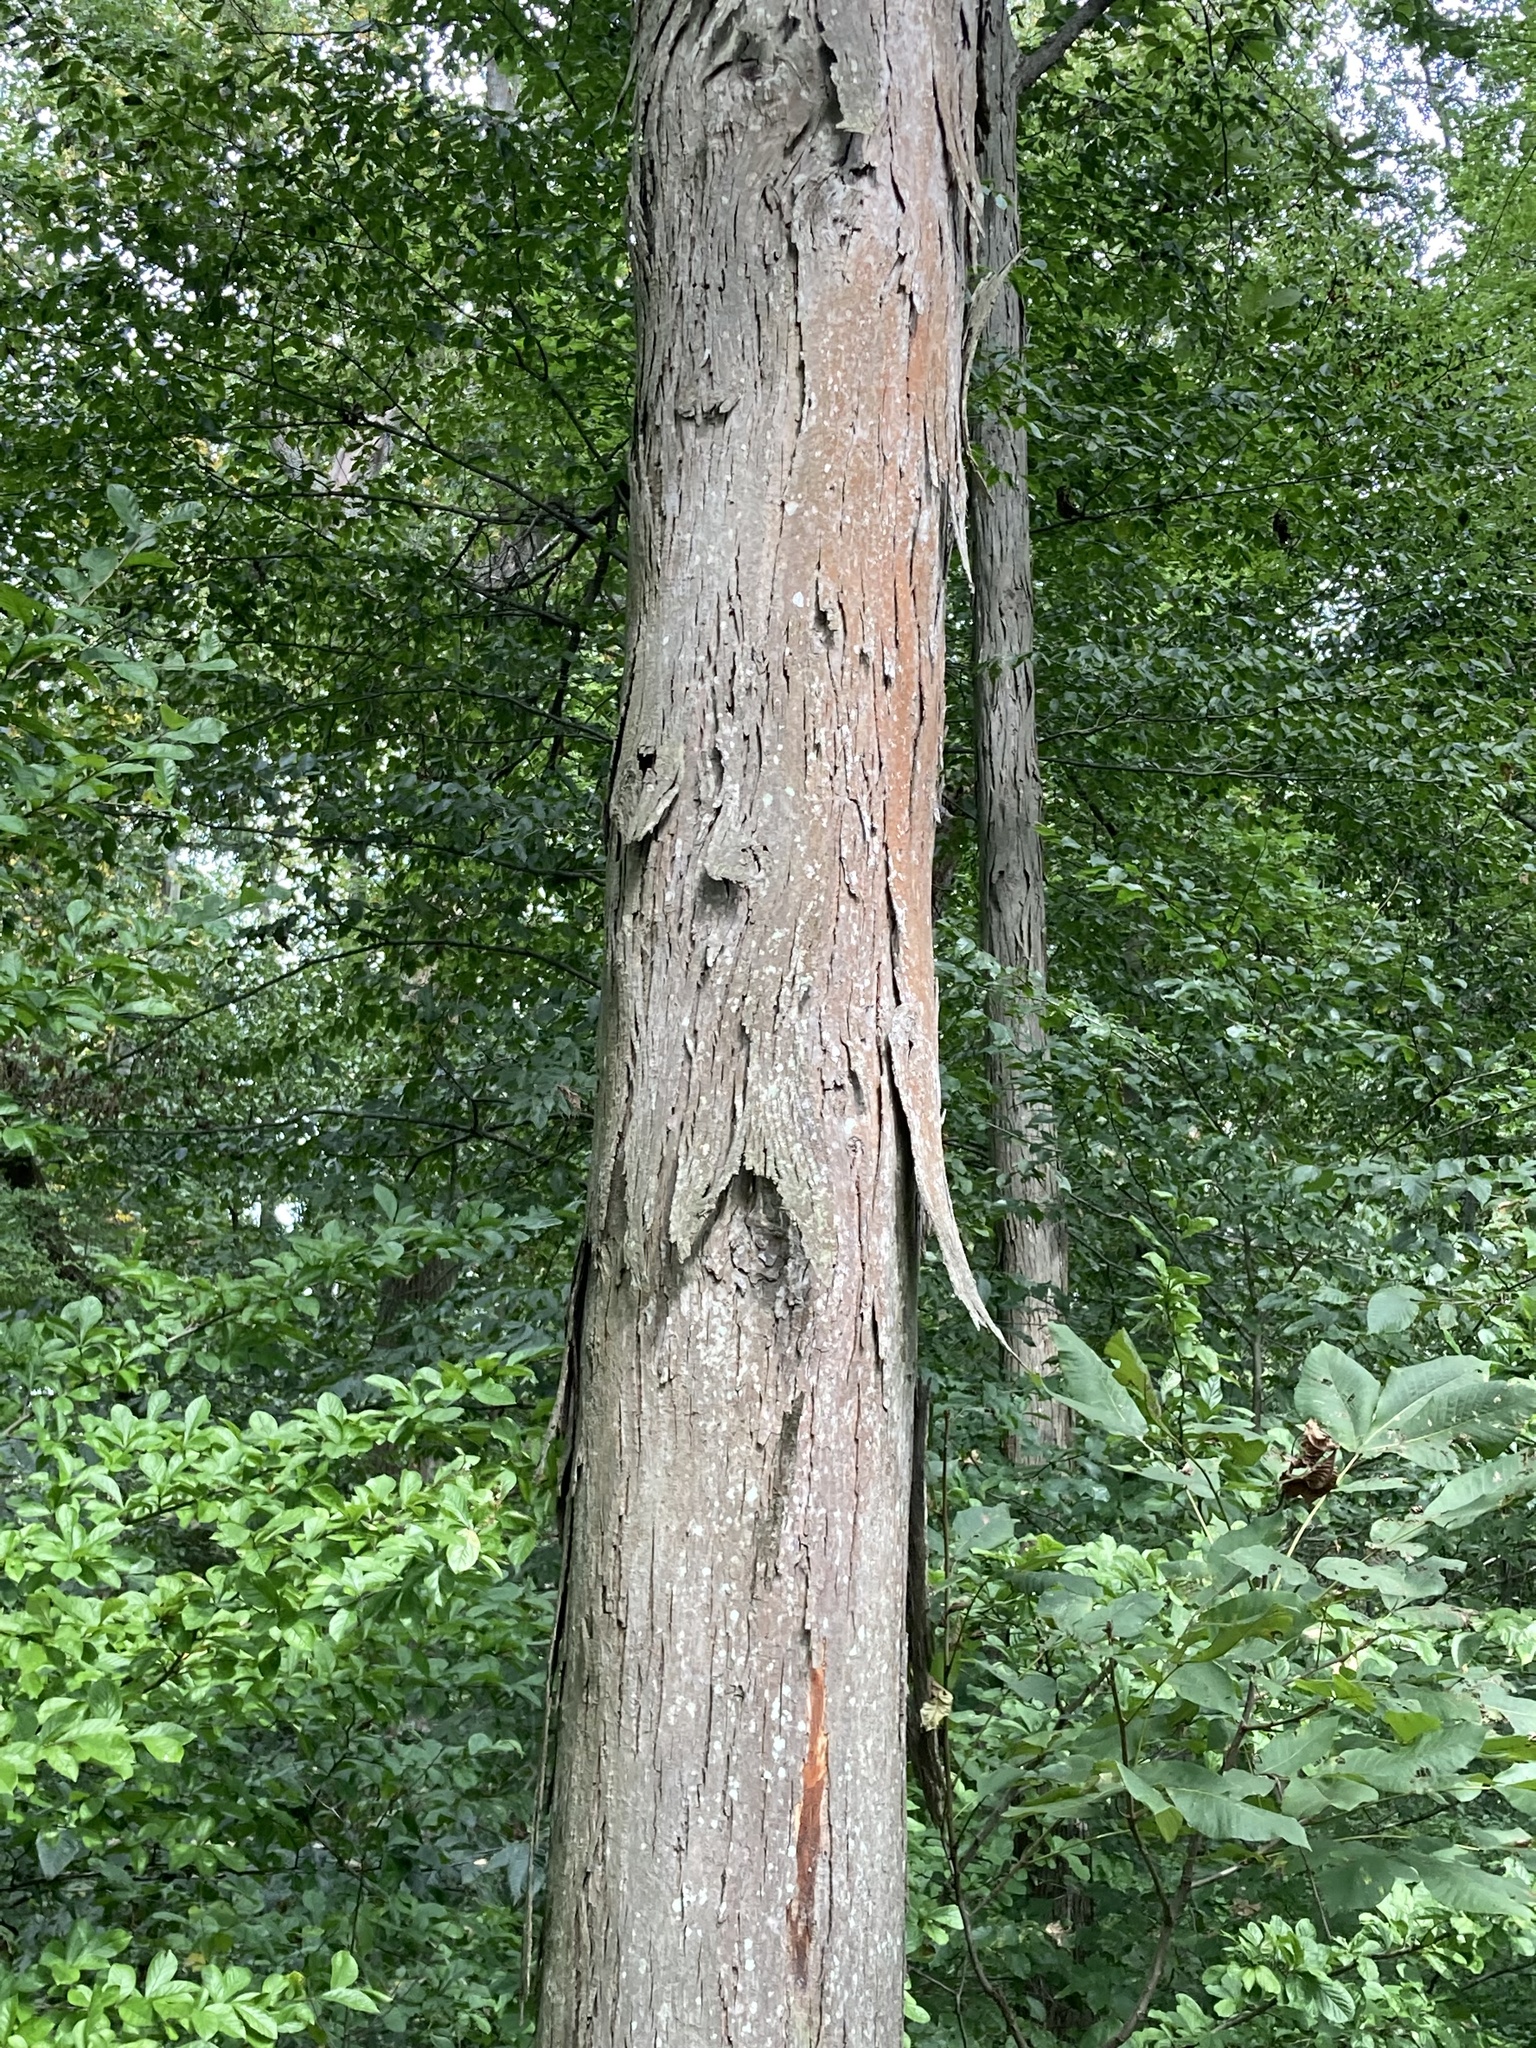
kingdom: Plantae
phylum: Tracheophyta
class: Magnoliopsida
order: Fagales
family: Juglandaceae
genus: Carya
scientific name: Carya ovata
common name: Shagbark hickory
